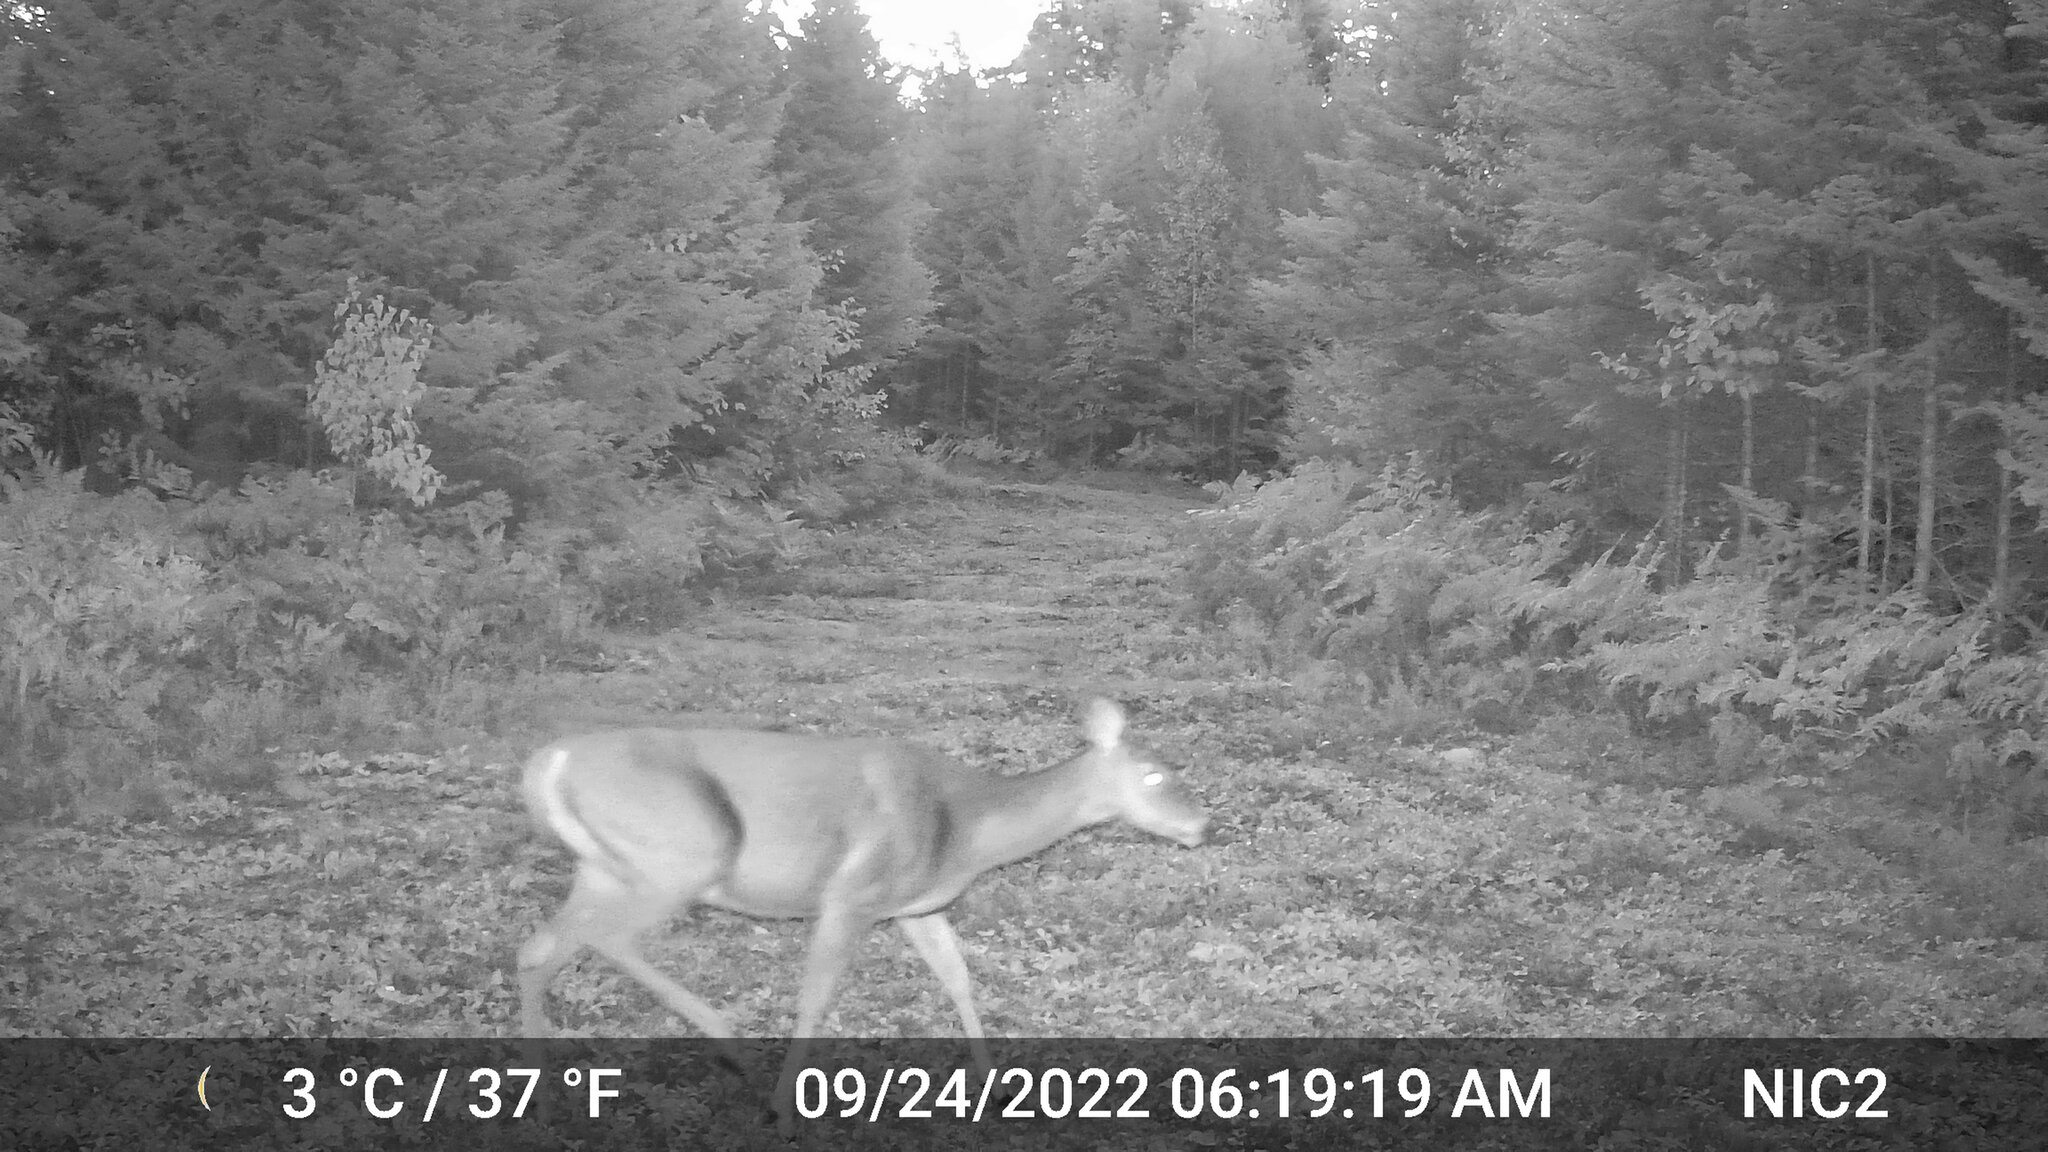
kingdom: Animalia
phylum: Chordata
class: Mammalia
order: Artiodactyla
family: Cervidae
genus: Odocoileus
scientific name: Odocoileus virginianus
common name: White-tailed deer
